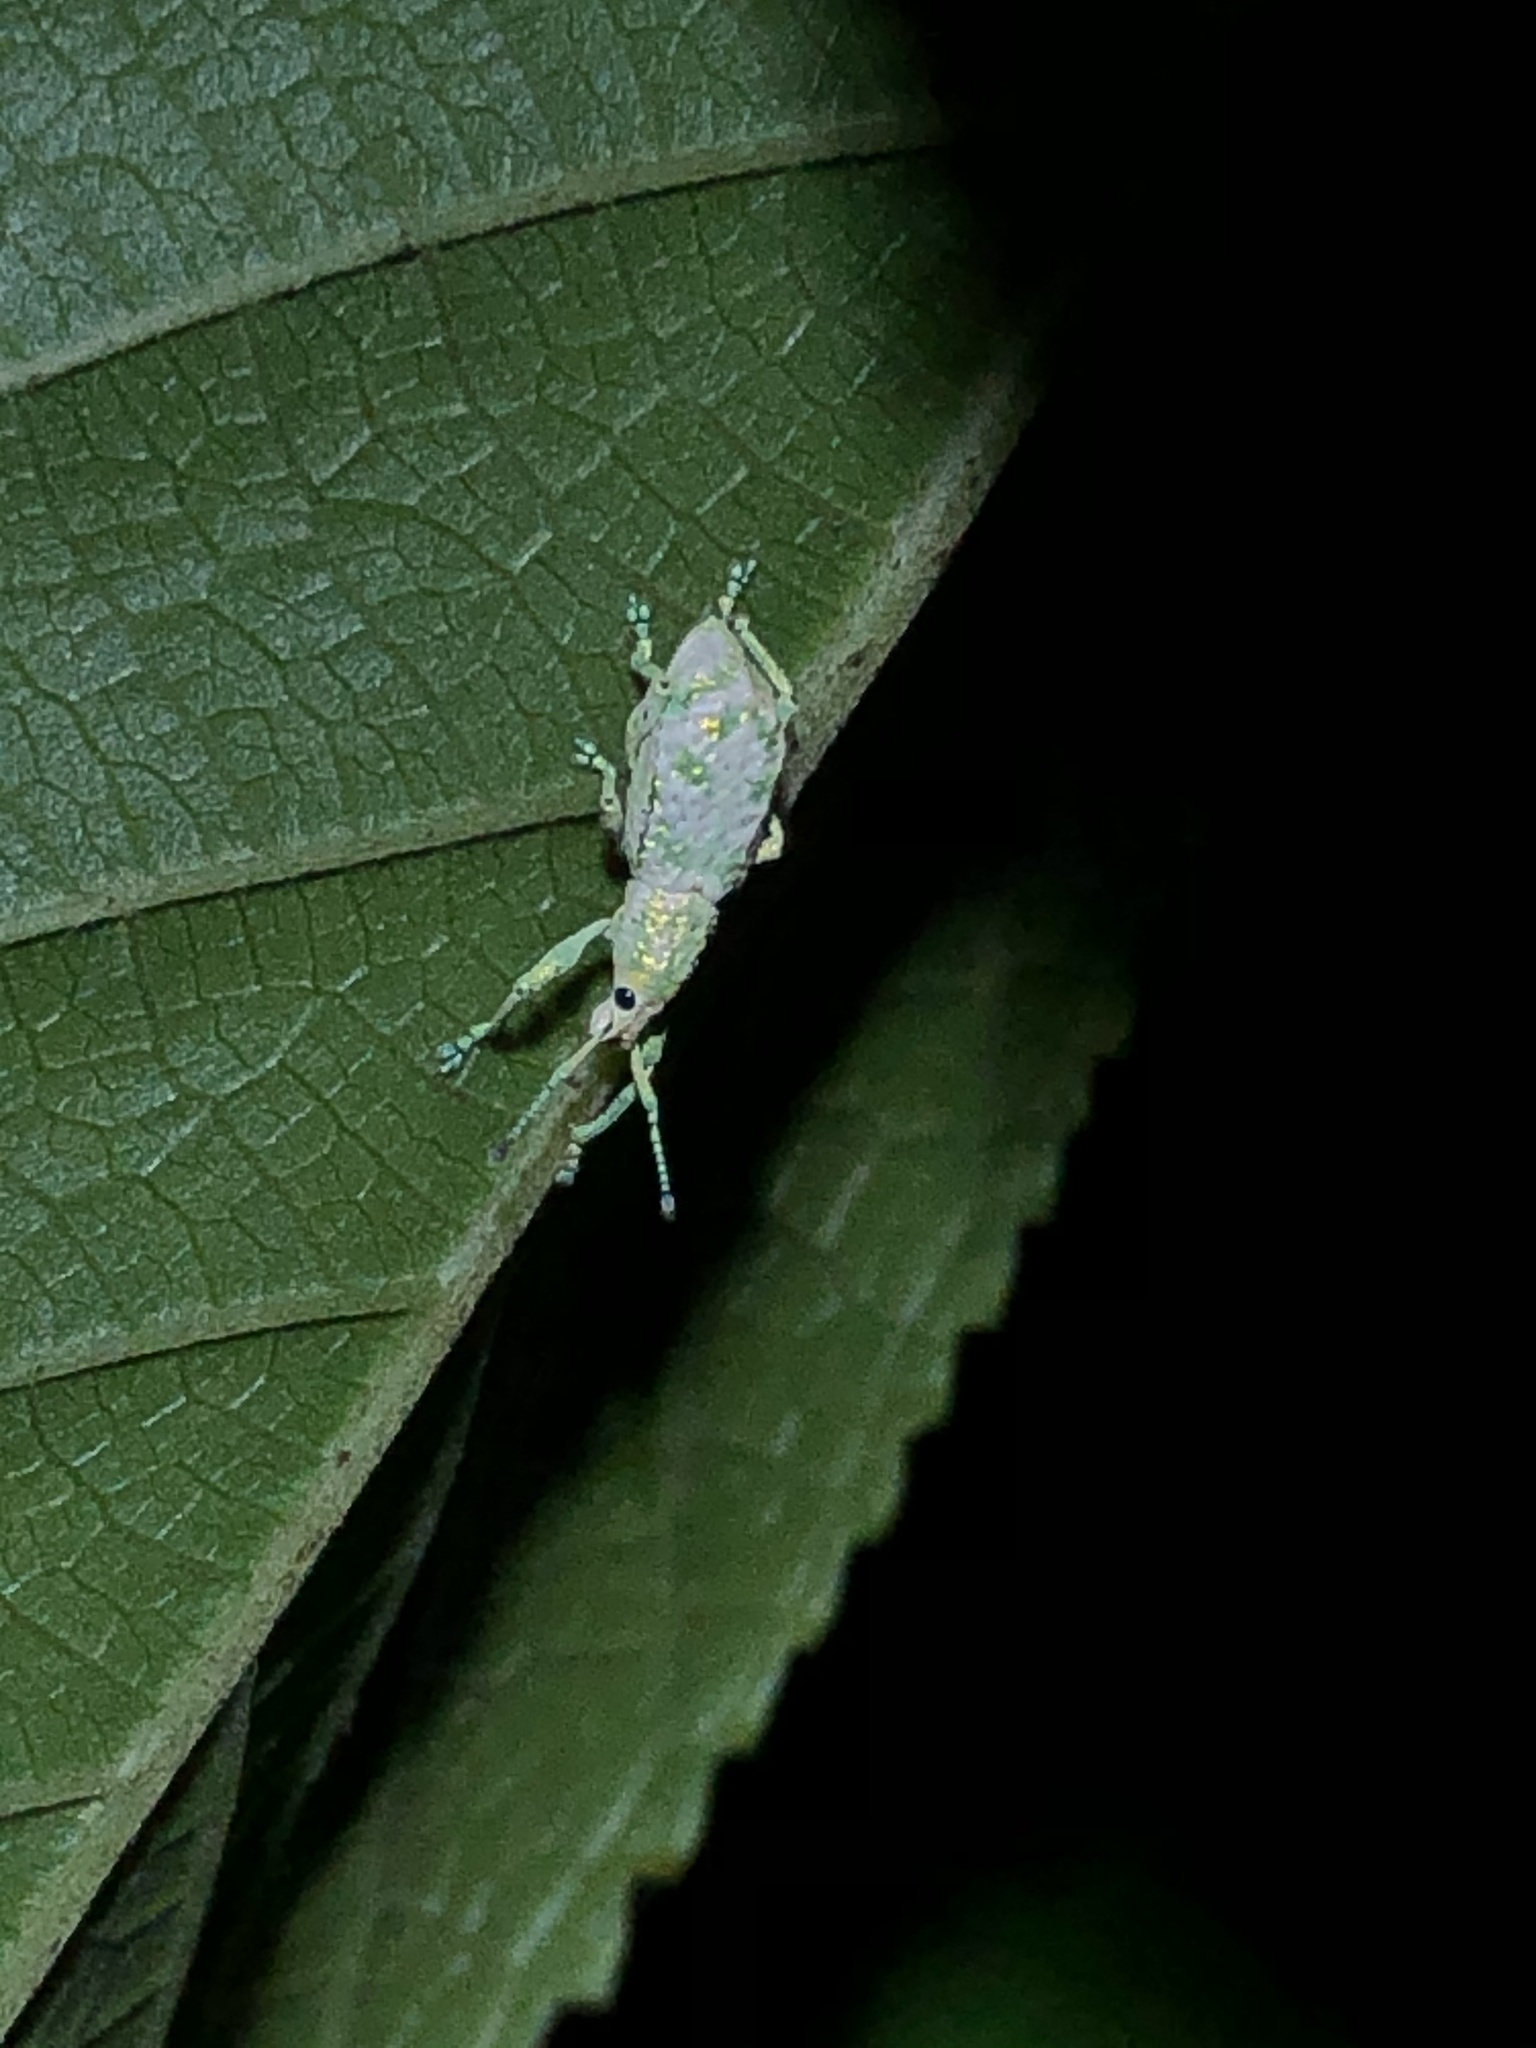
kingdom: Animalia
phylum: Arthropoda
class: Insecta
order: Coleoptera
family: Curculionidae
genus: Compsus
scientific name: Compsus argyreus
